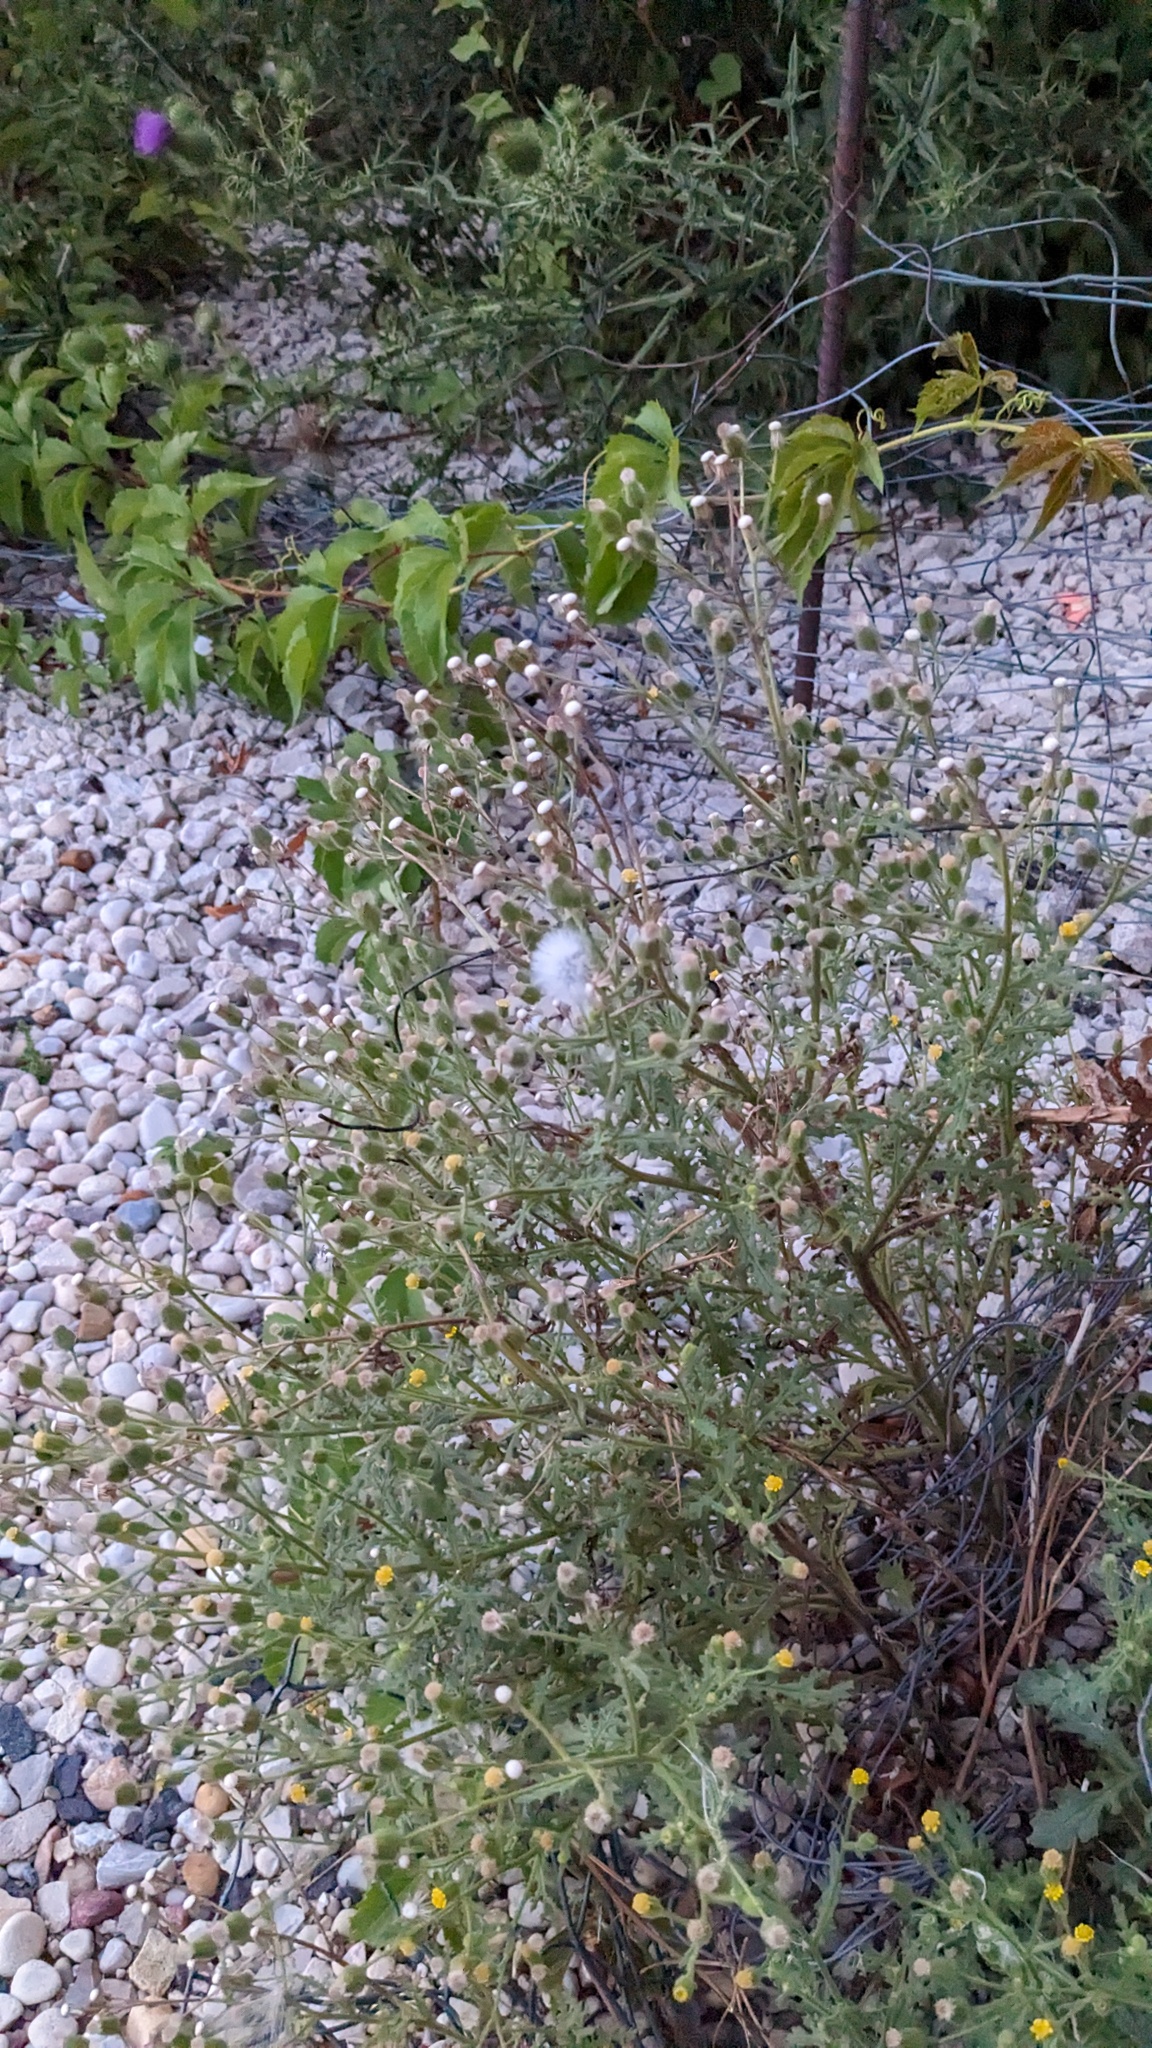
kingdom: Plantae
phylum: Tracheophyta
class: Magnoliopsida
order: Asterales
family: Asteraceae
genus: Senecio
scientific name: Senecio viscosus
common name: Sticky groundsel
